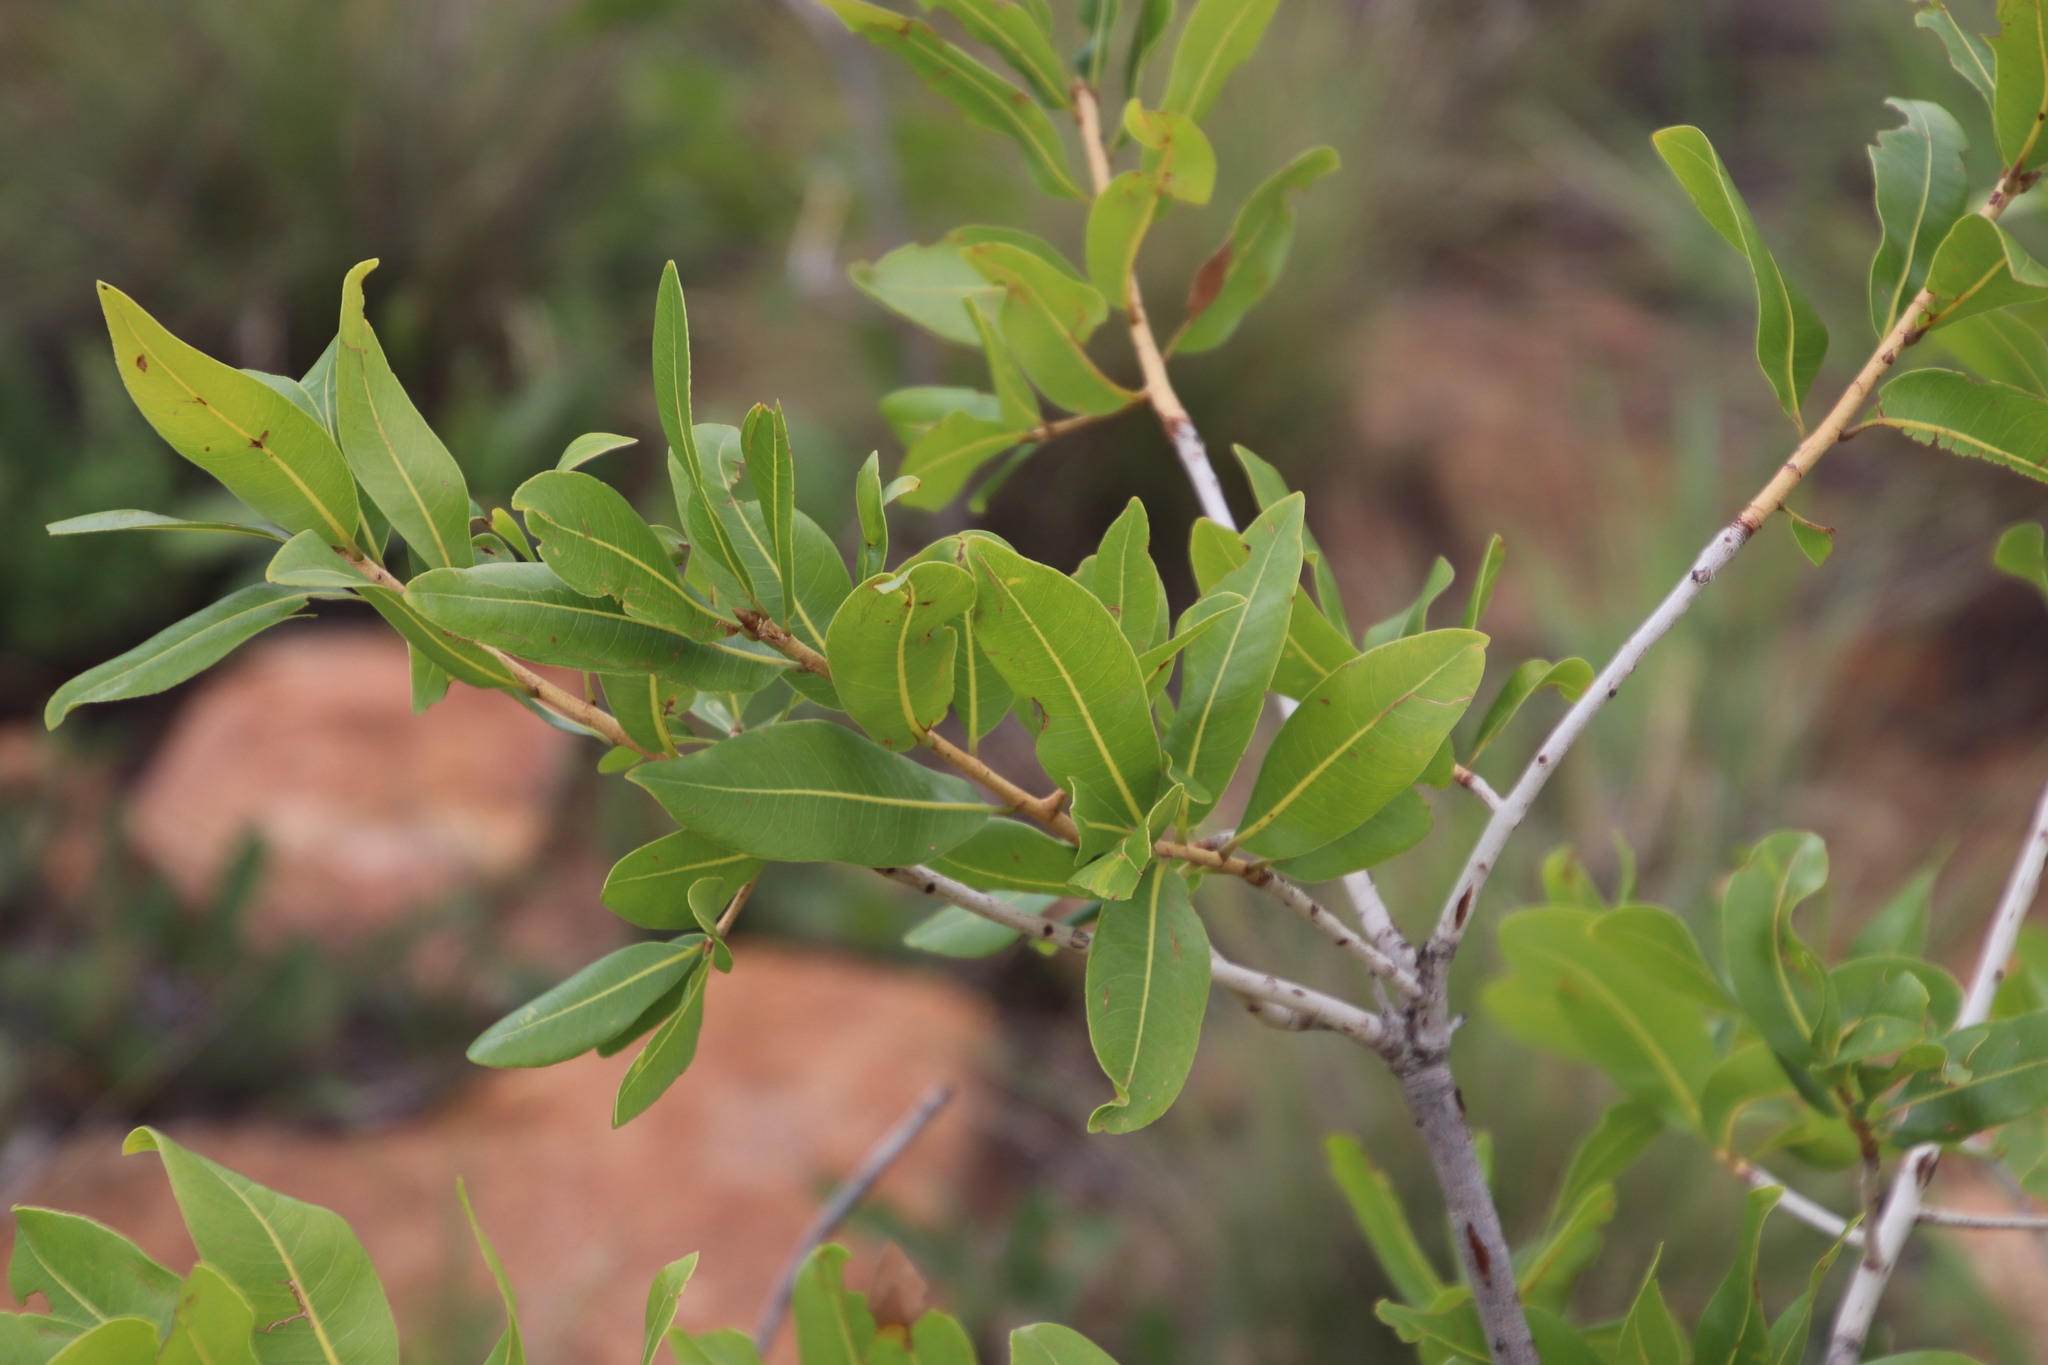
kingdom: Plantae
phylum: Tracheophyta
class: Magnoliopsida
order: Malpighiales
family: Ochnaceae
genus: Ochna
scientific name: Ochna pulchra
